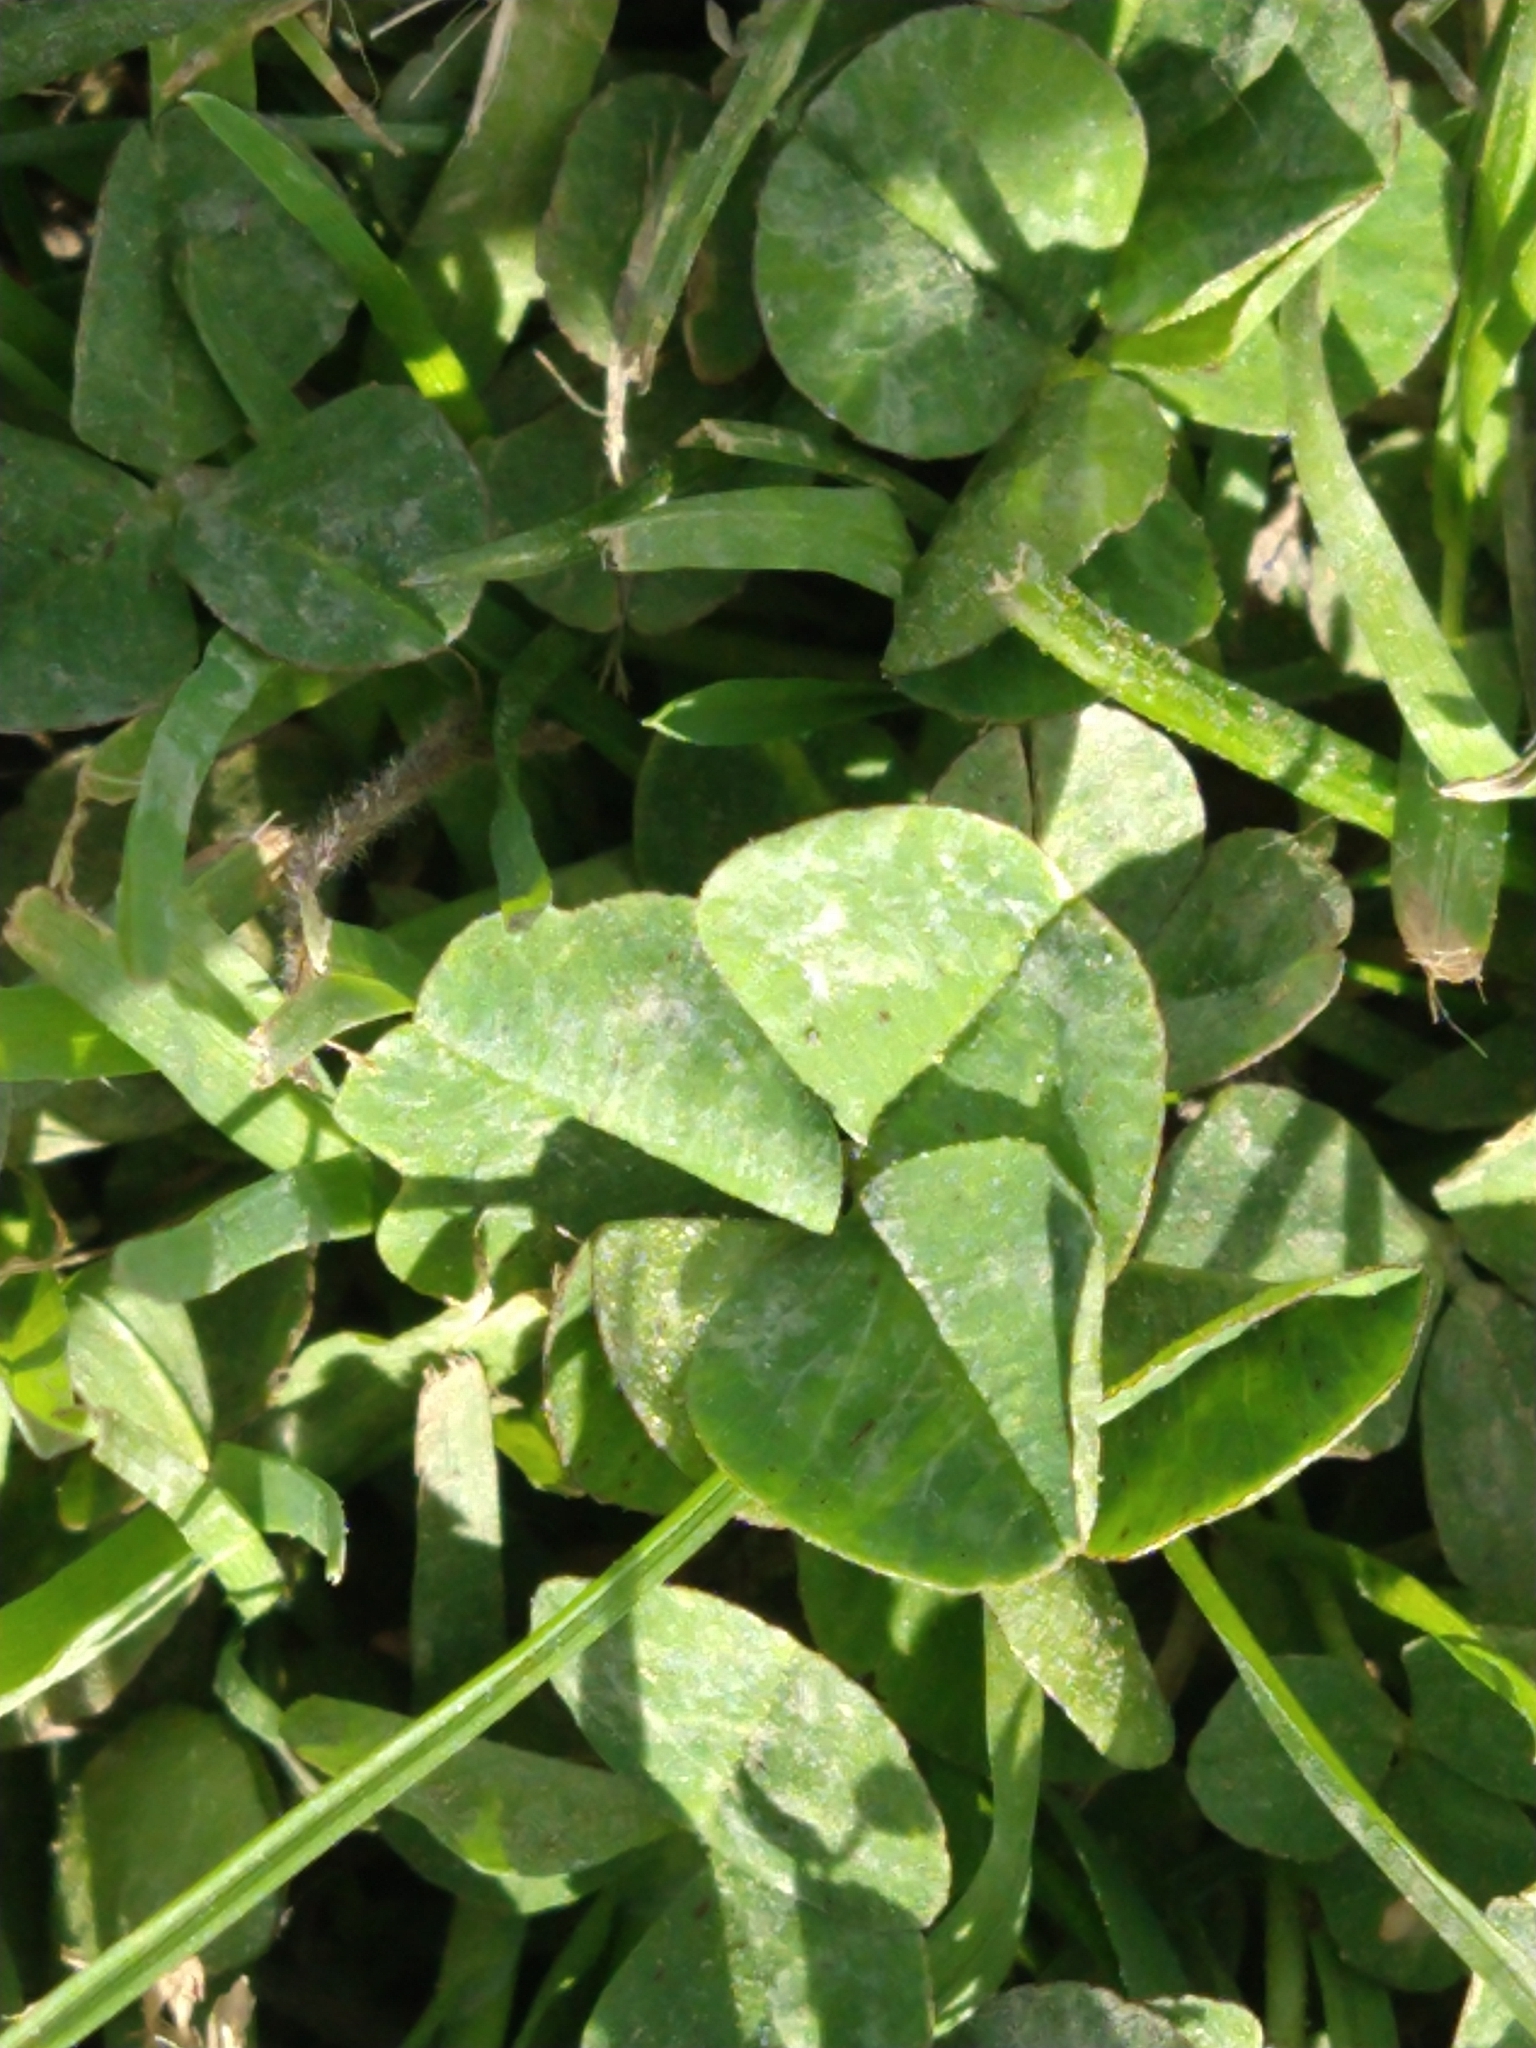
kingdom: Plantae
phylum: Tracheophyta
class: Magnoliopsida
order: Fabales
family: Fabaceae
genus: Trifolium
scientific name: Trifolium repens
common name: White clover
